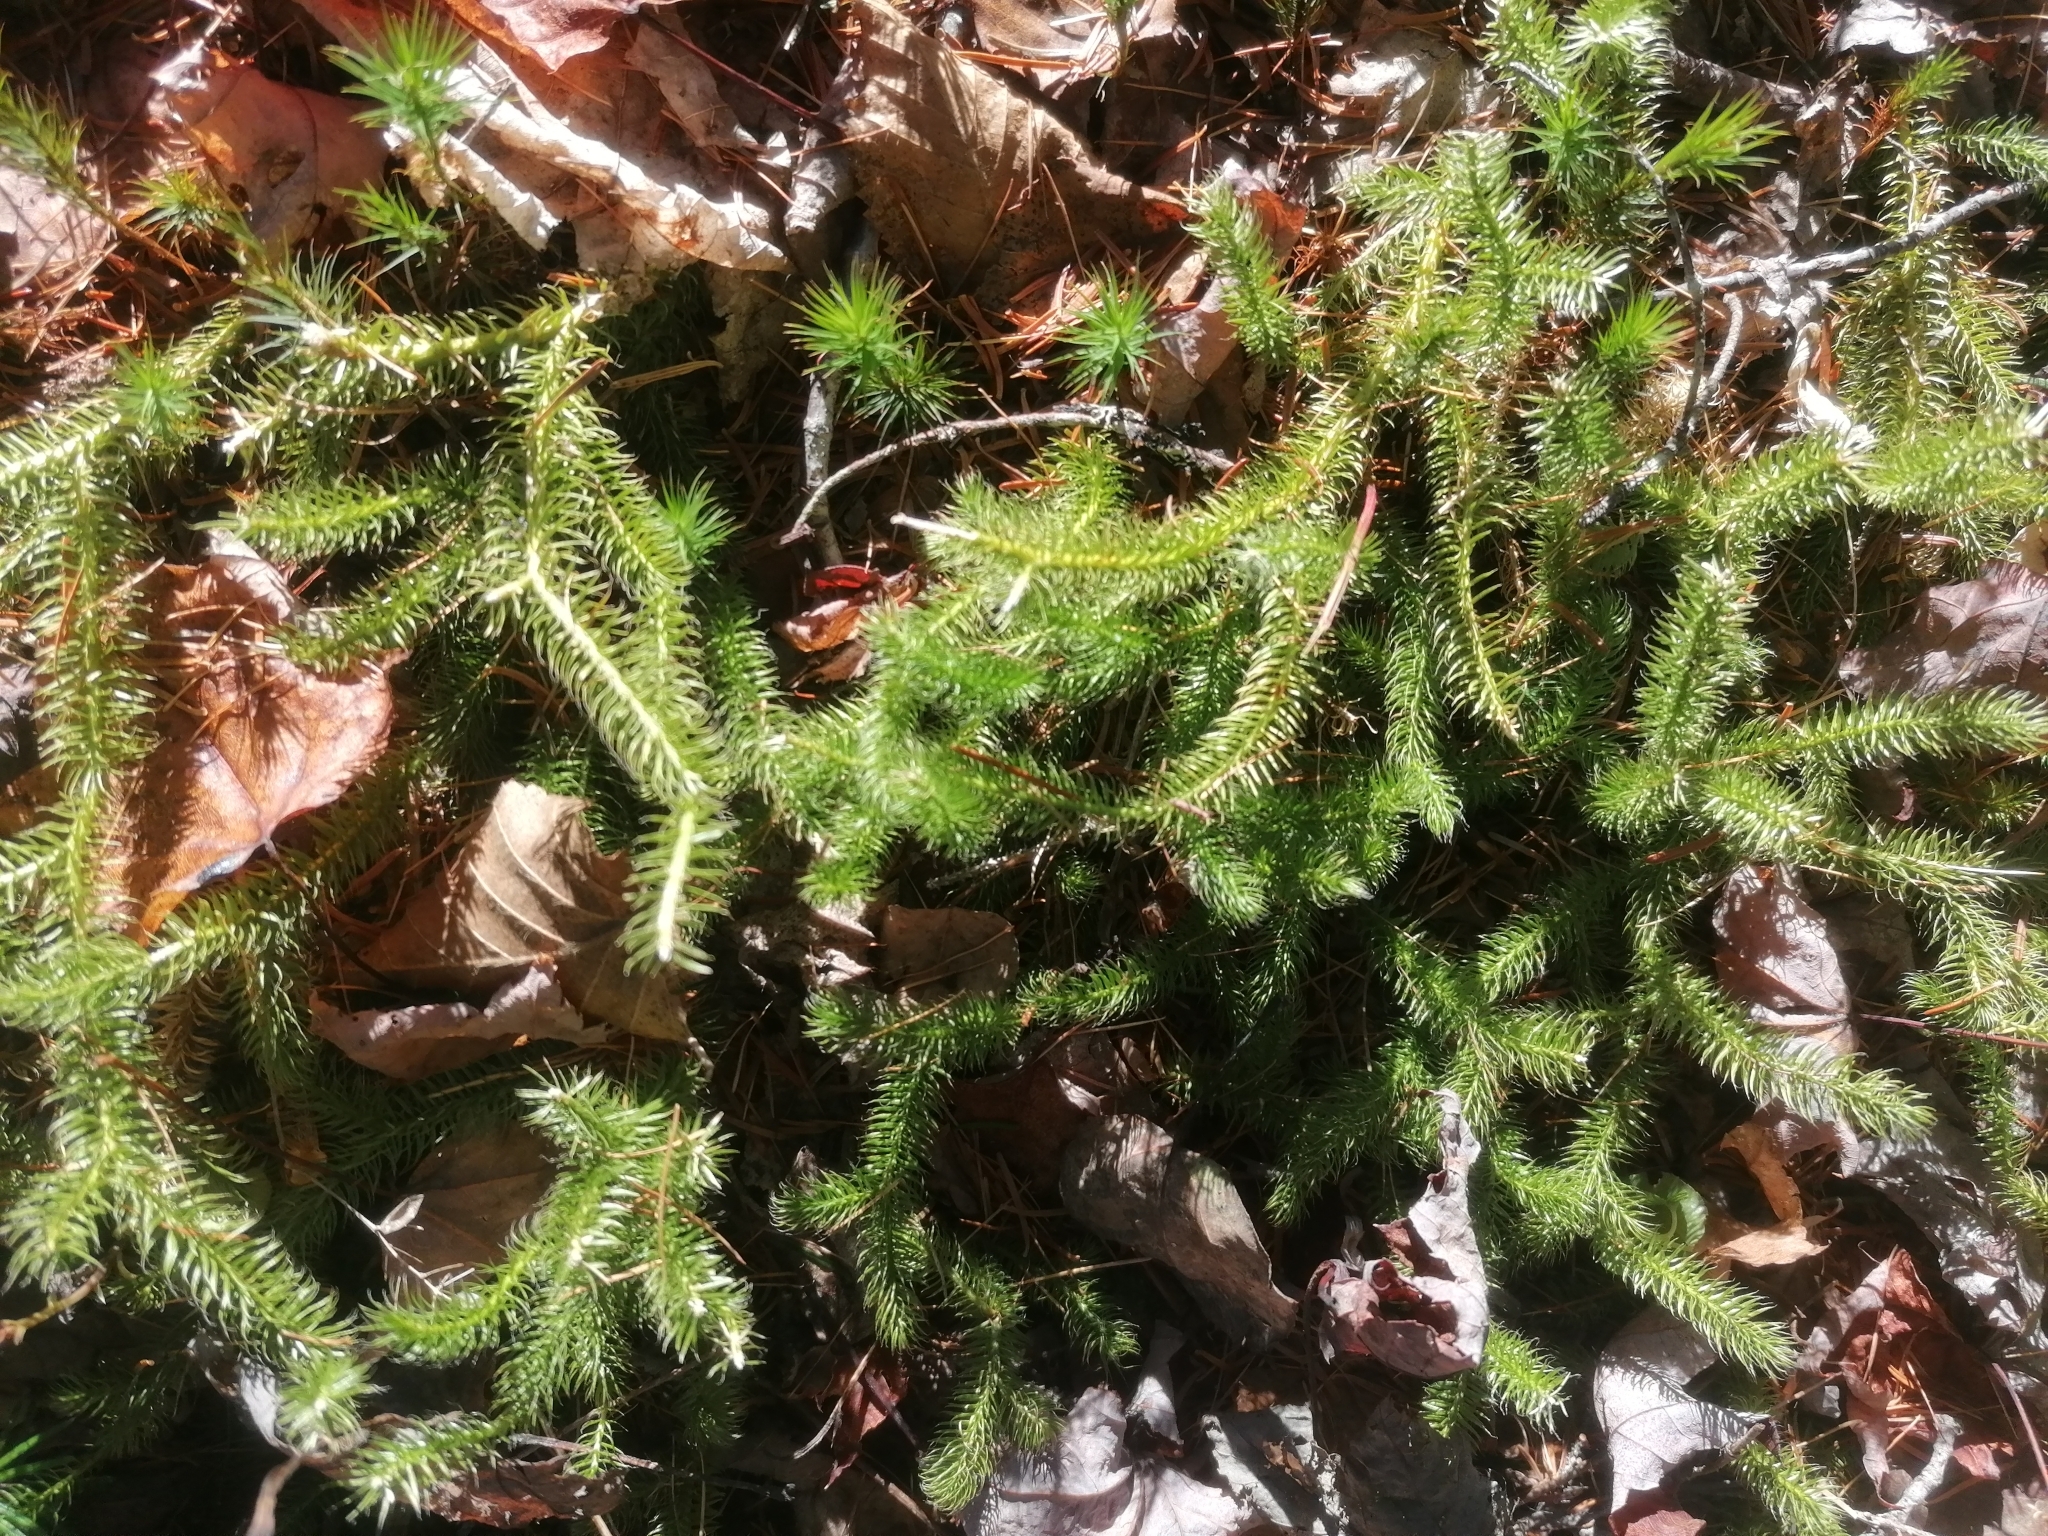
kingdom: Plantae
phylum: Tracheophyta
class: Lycopodiopsida
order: Lycopodiales
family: Lycopodiaceae
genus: Lycopodium
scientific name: Lycopodium clavatum
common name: Stag's-horn clubmoss
